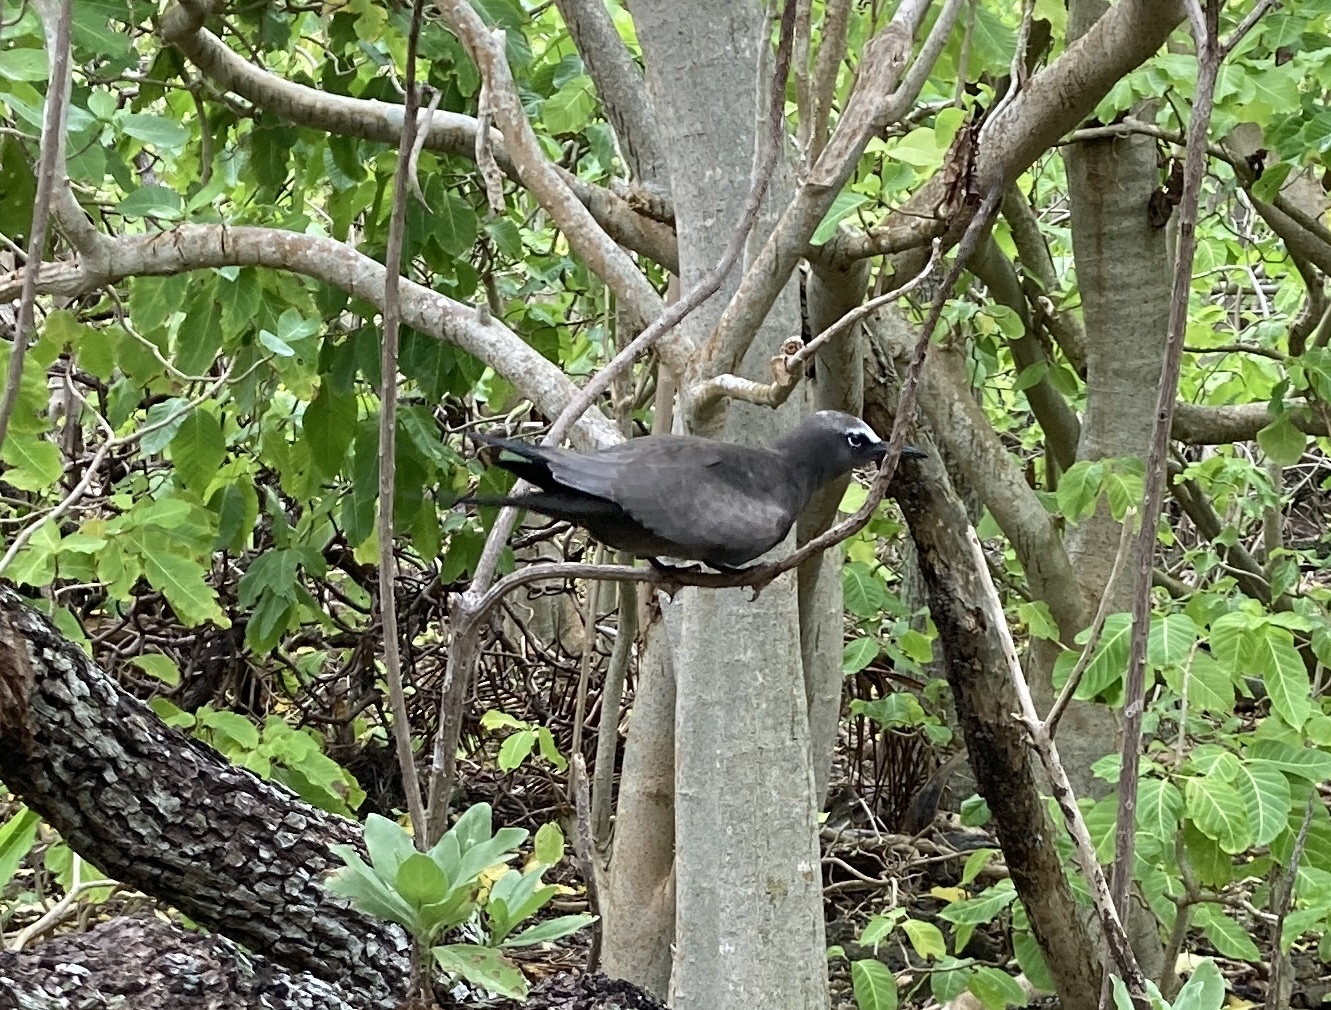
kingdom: Animalia
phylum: Chordata
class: Aves
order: Charadriiformes
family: Laridae
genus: Anous
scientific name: Anous stolidus
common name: Brown noddy
